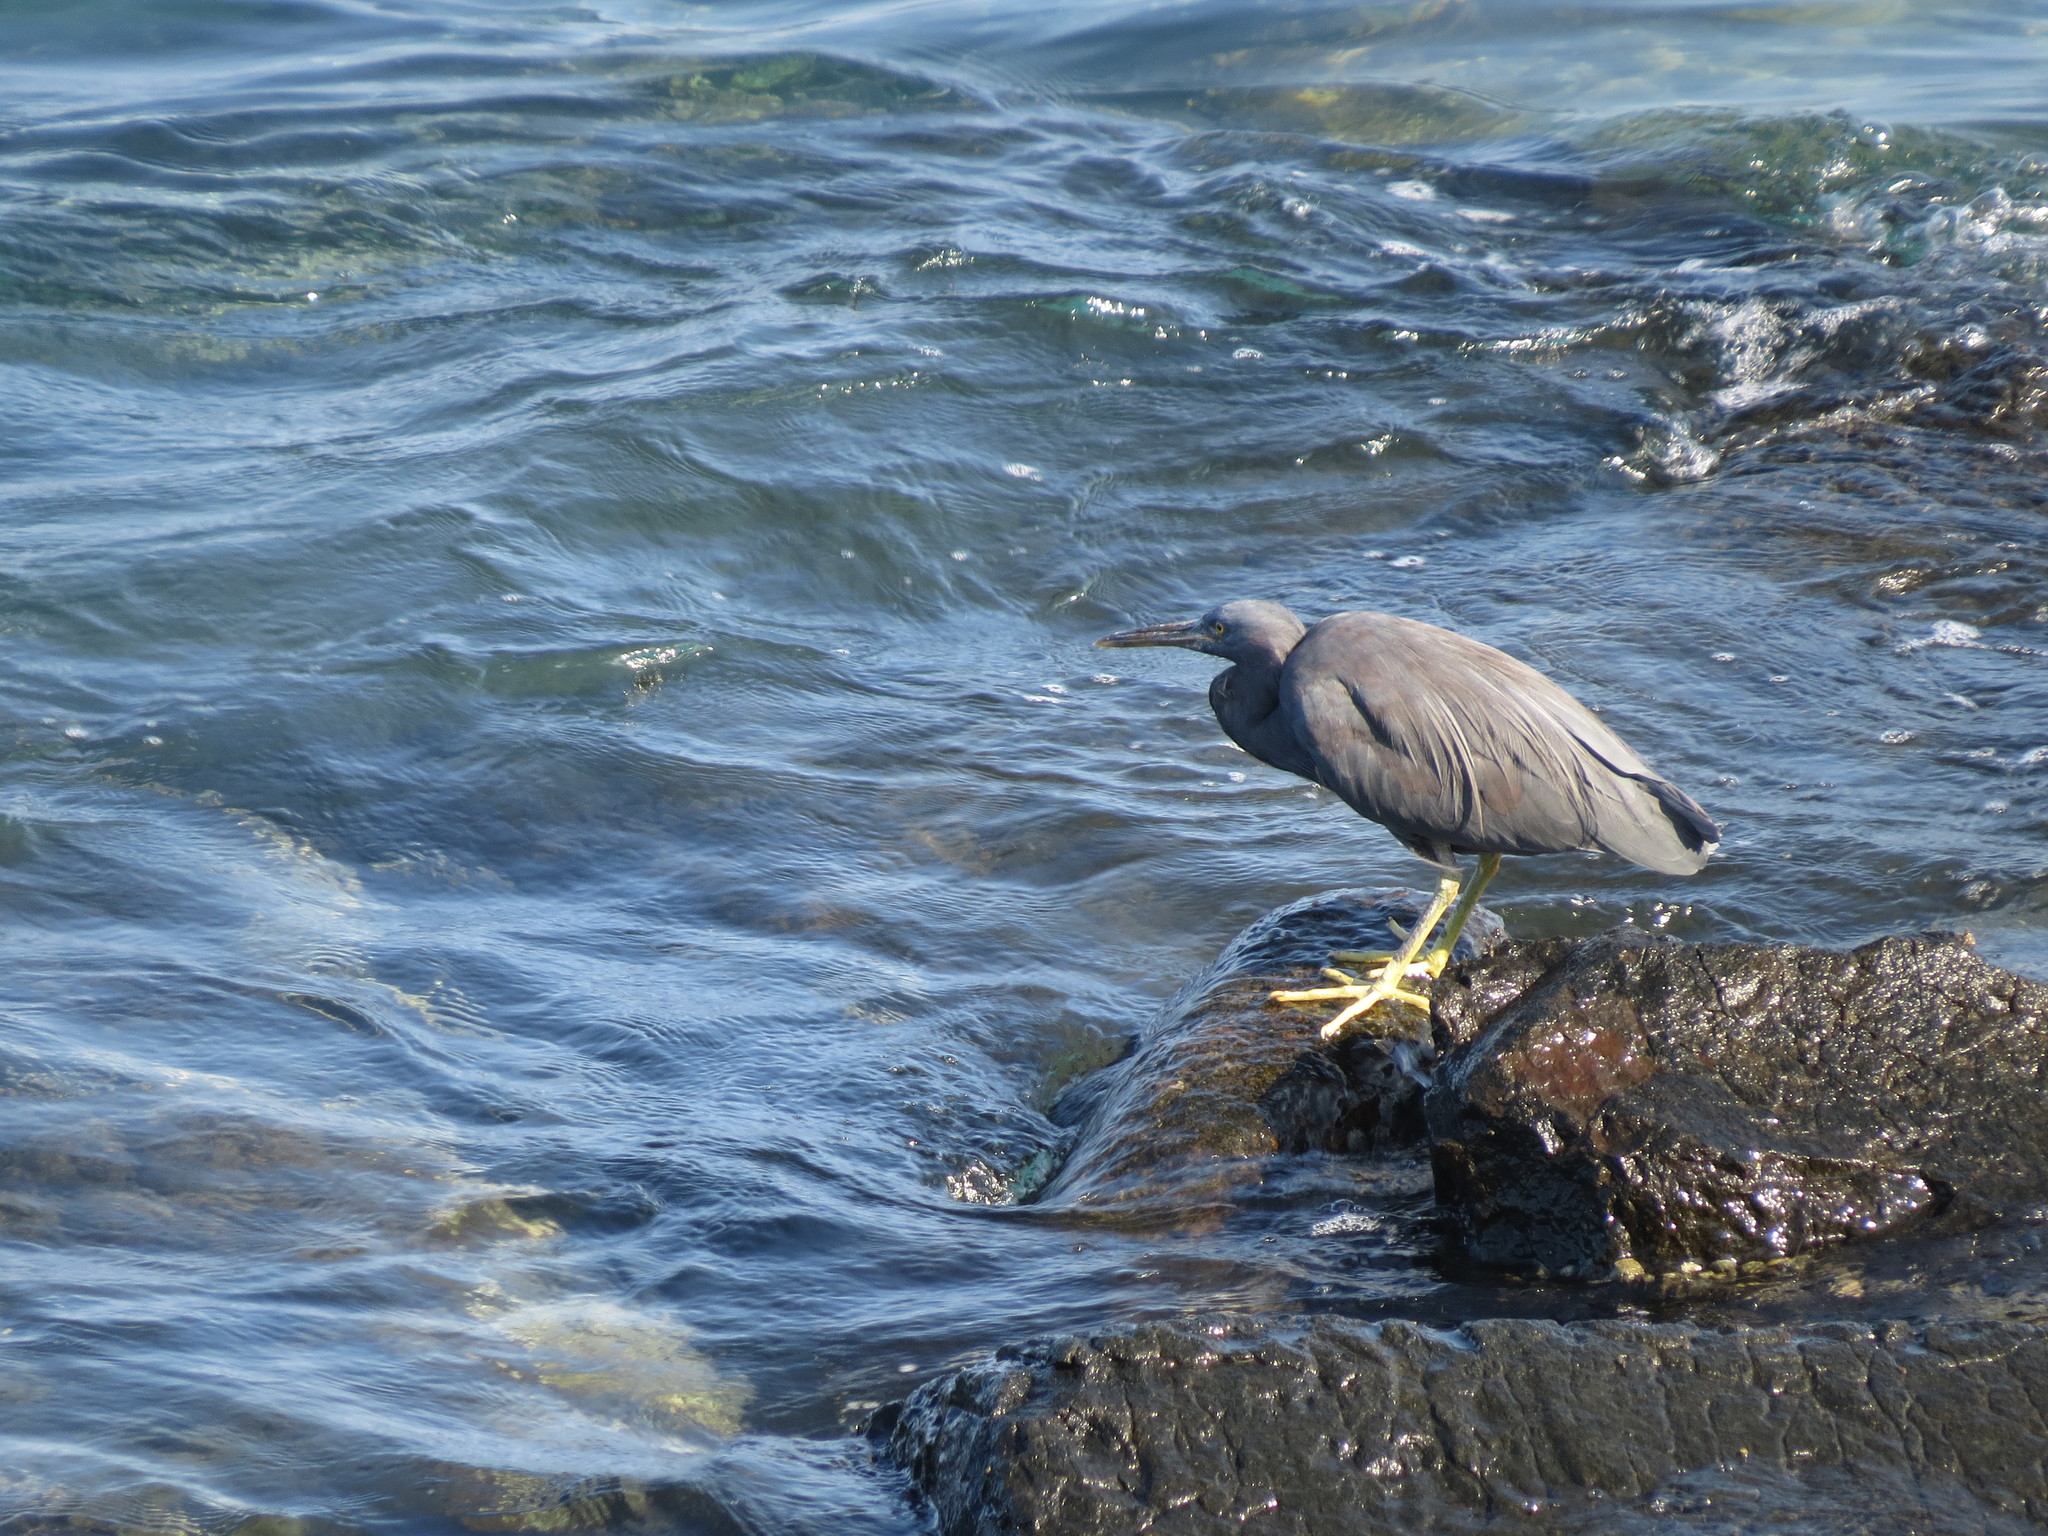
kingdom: Animalia
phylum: Chordata
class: Aves
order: Pelecaniformes
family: Ardeidae
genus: Egretta
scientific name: Egretta sacra
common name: Pacific reef heron
